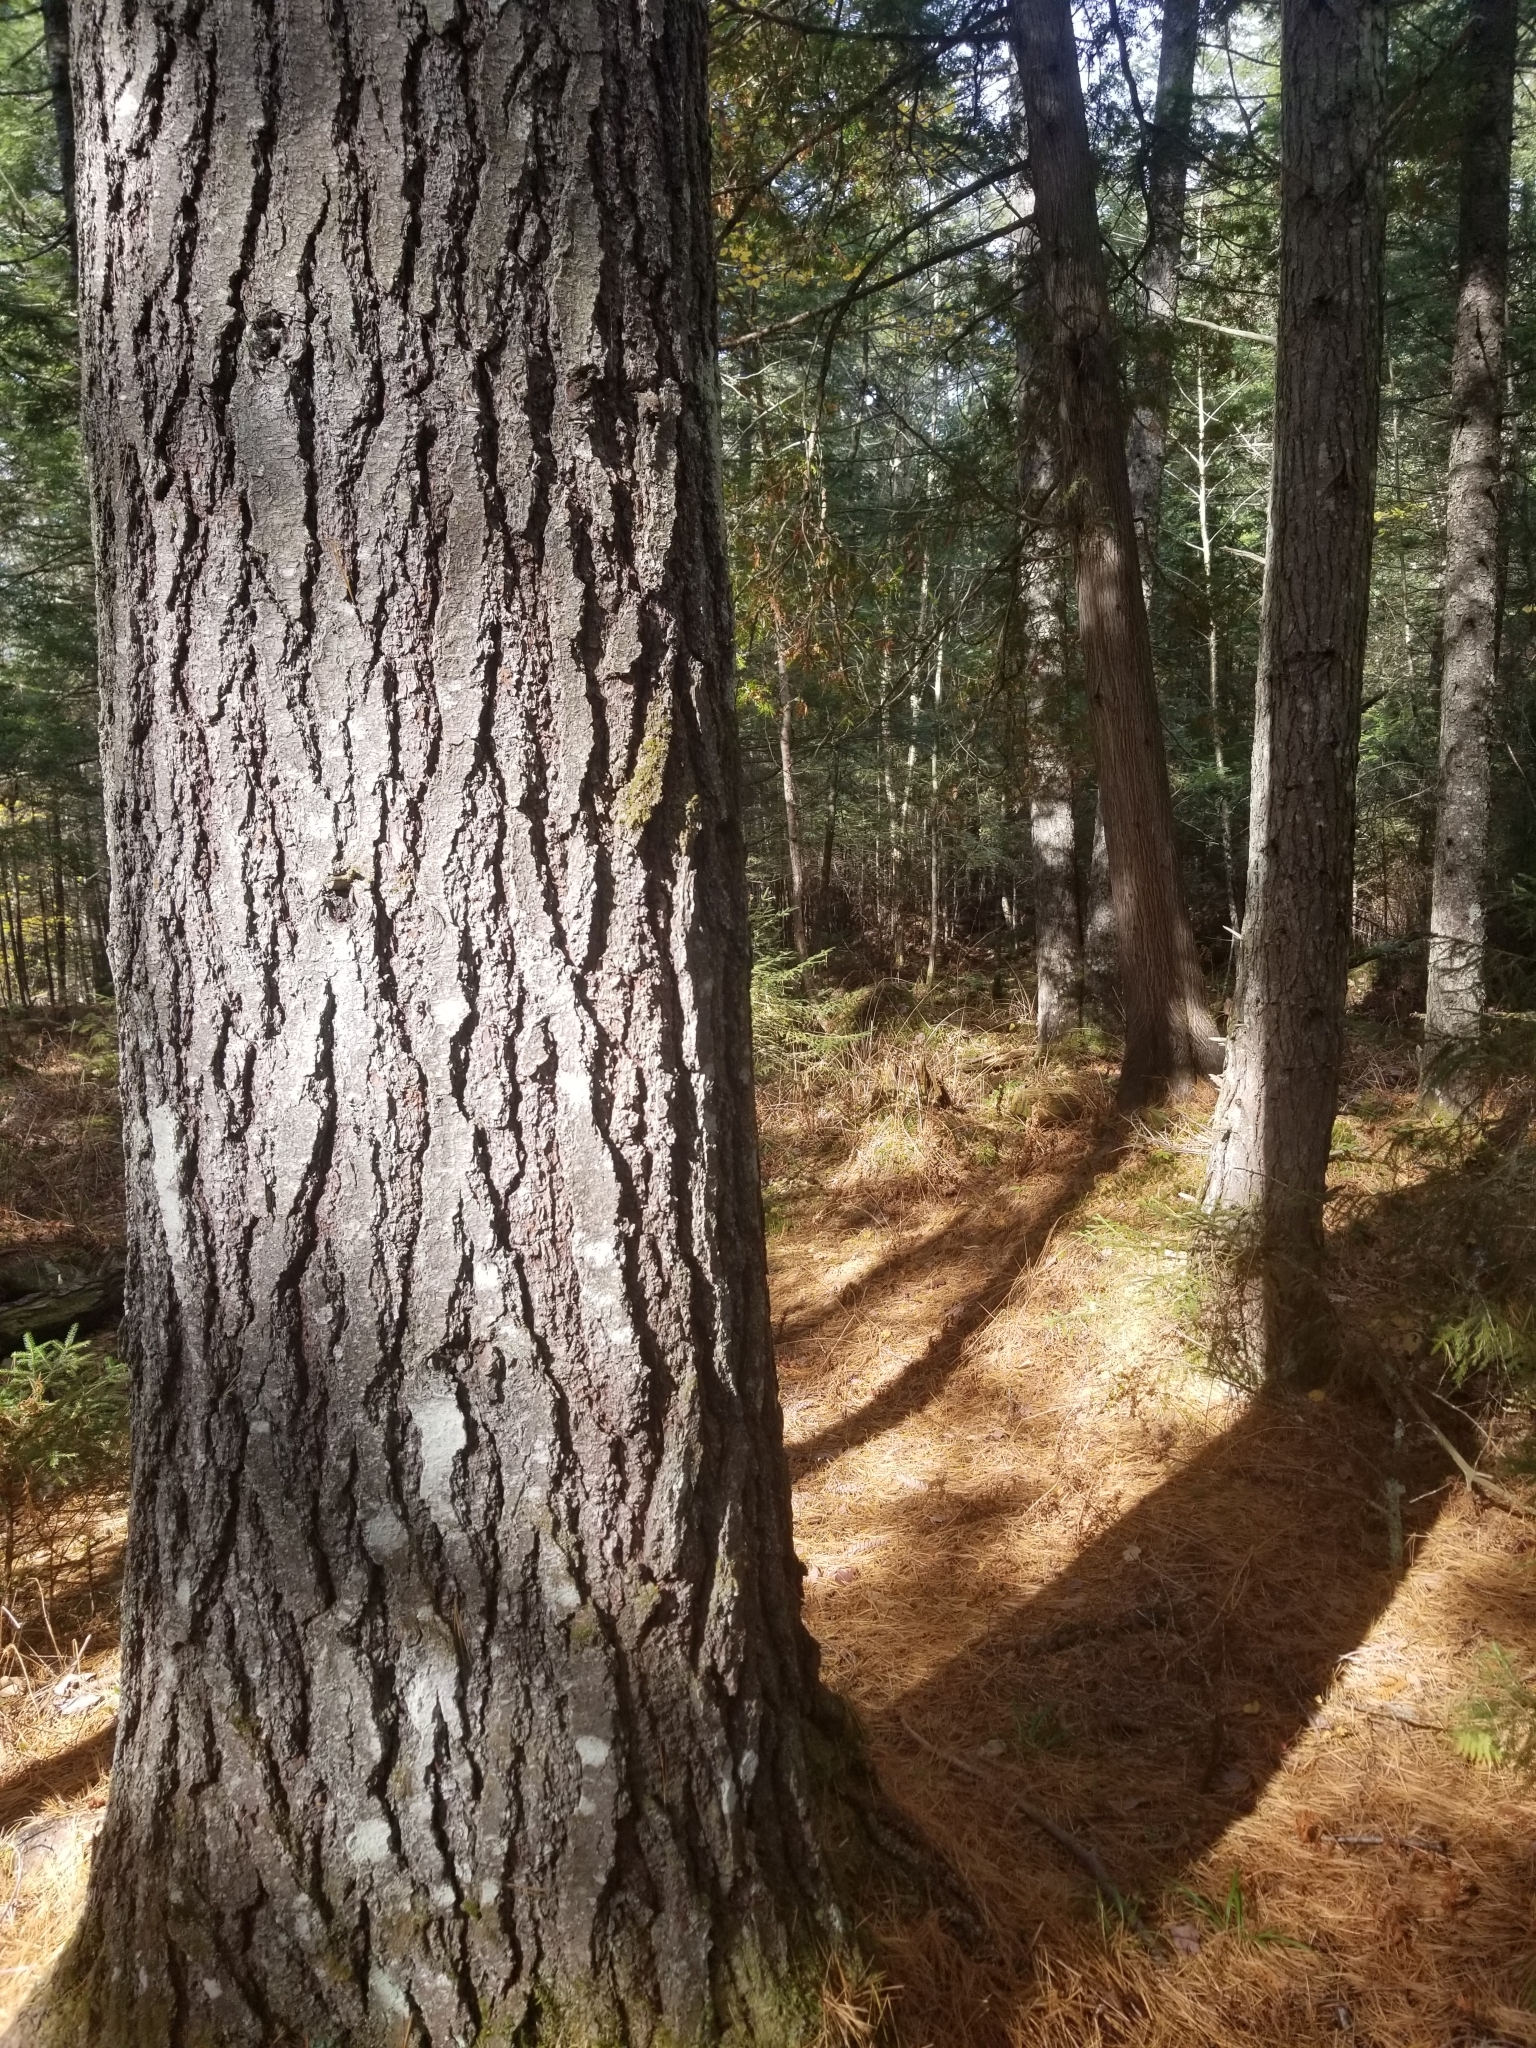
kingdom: Plantae
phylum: Tracheophyta
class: Pinopsida
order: Pinales
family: Pinaceae
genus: Pinus
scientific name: Pinus strobus
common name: Weymouth pine
